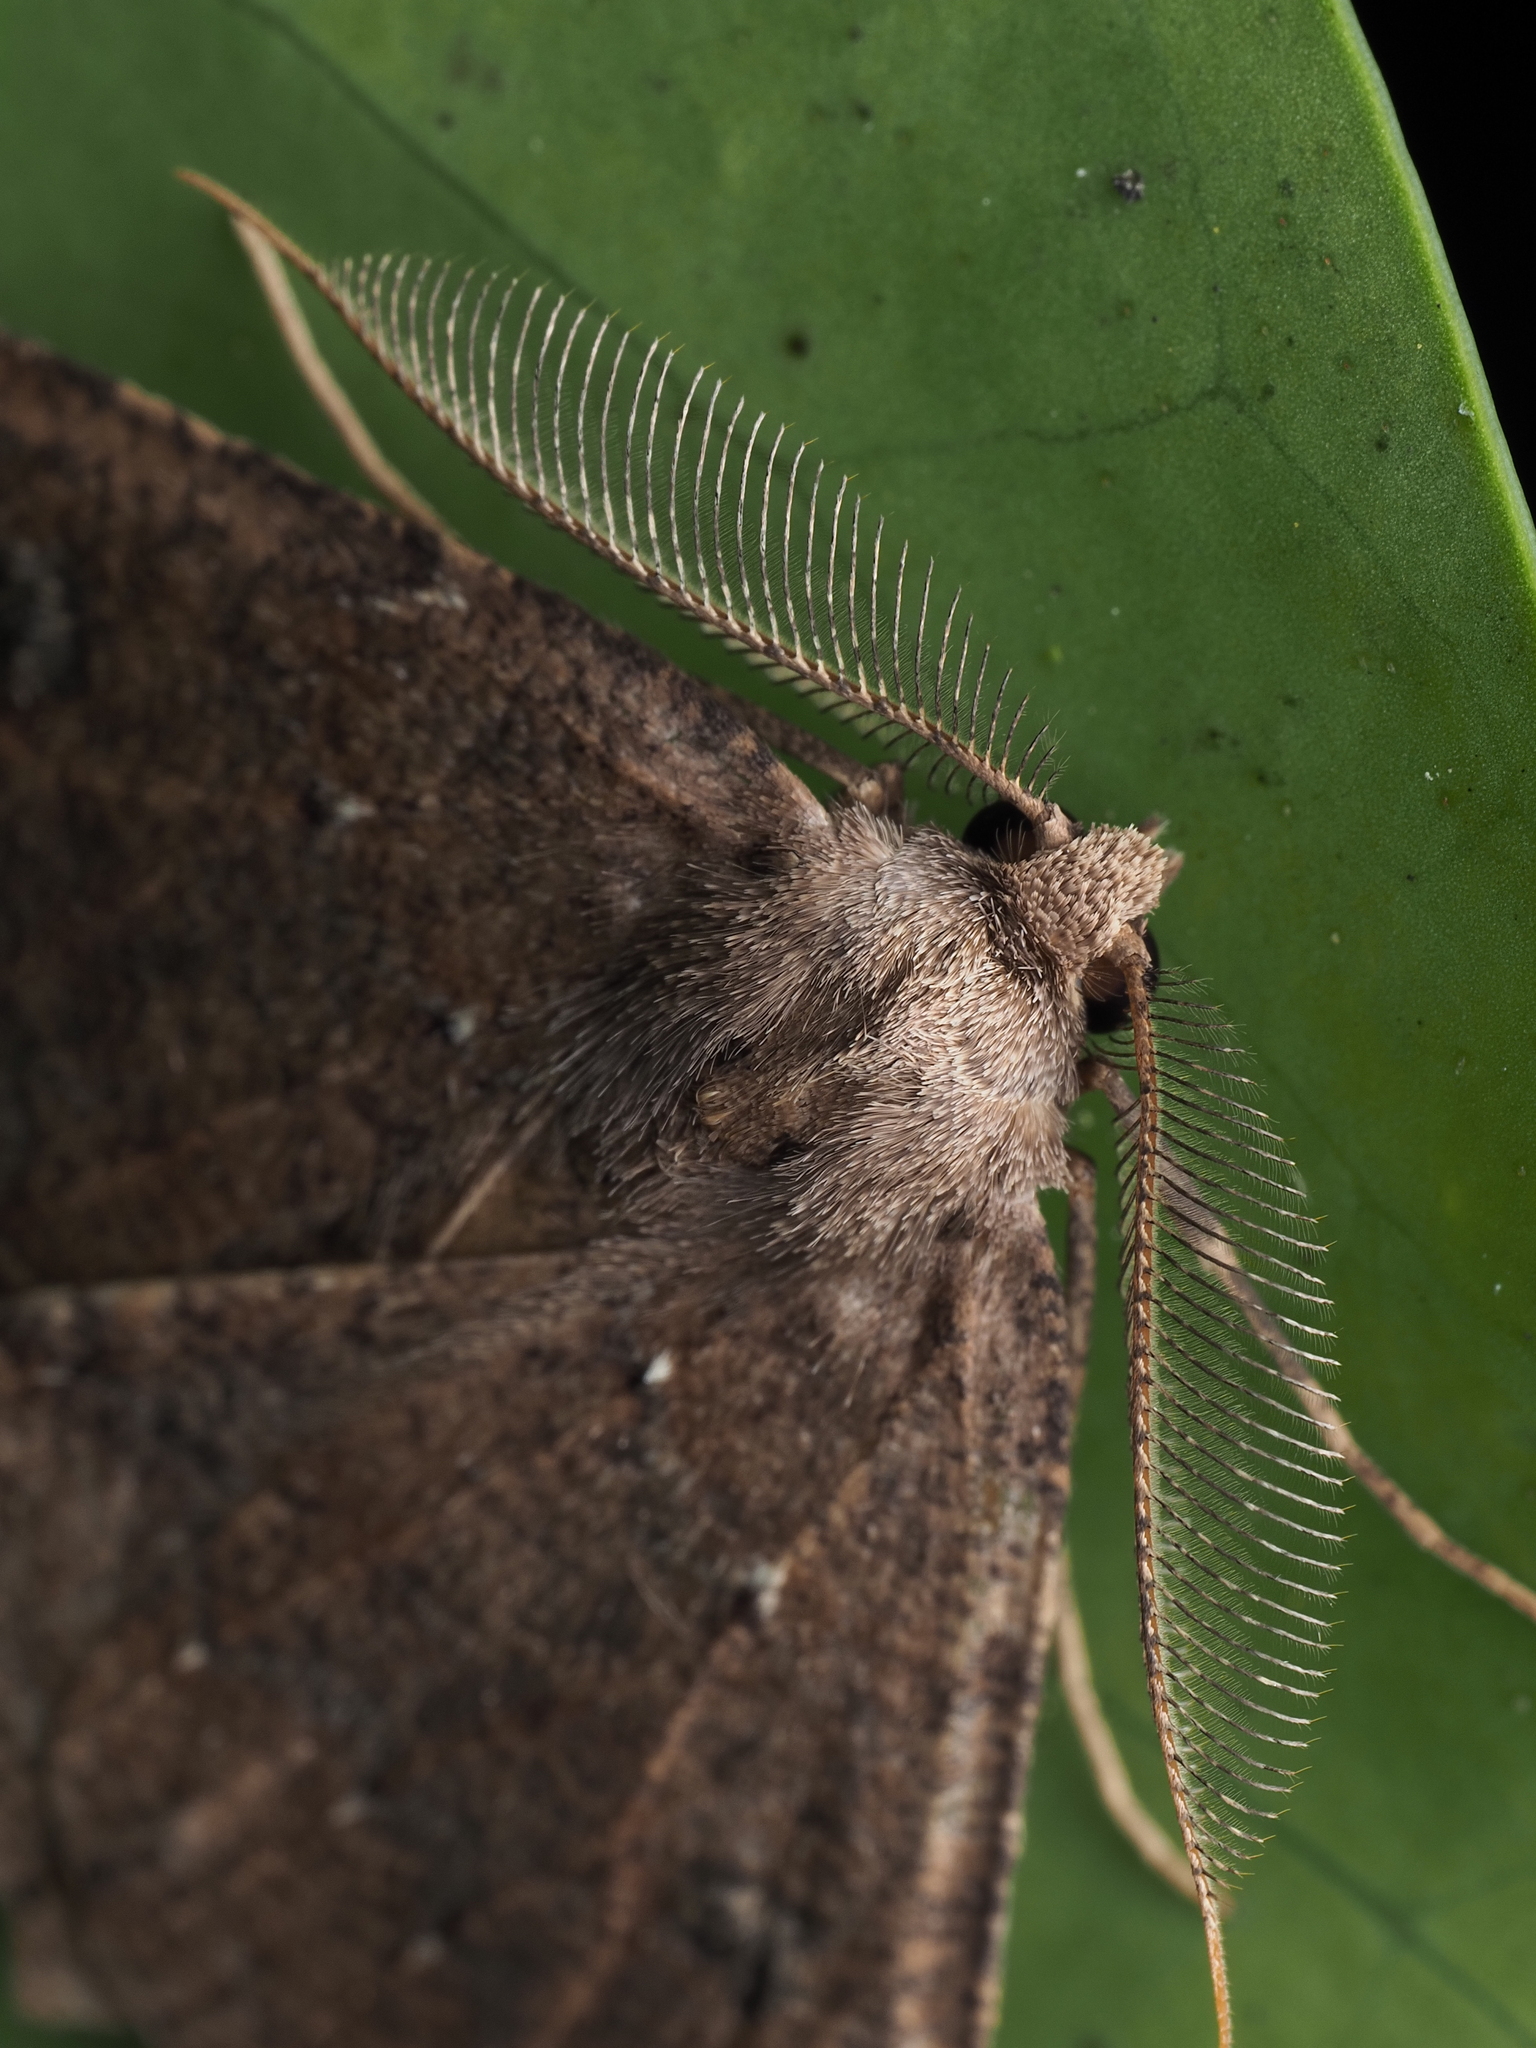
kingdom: Animalia
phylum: Arthropoda
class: Insecta
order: Lepidoptera
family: Geometridae
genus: Cleora
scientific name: Cleora scriptaria
